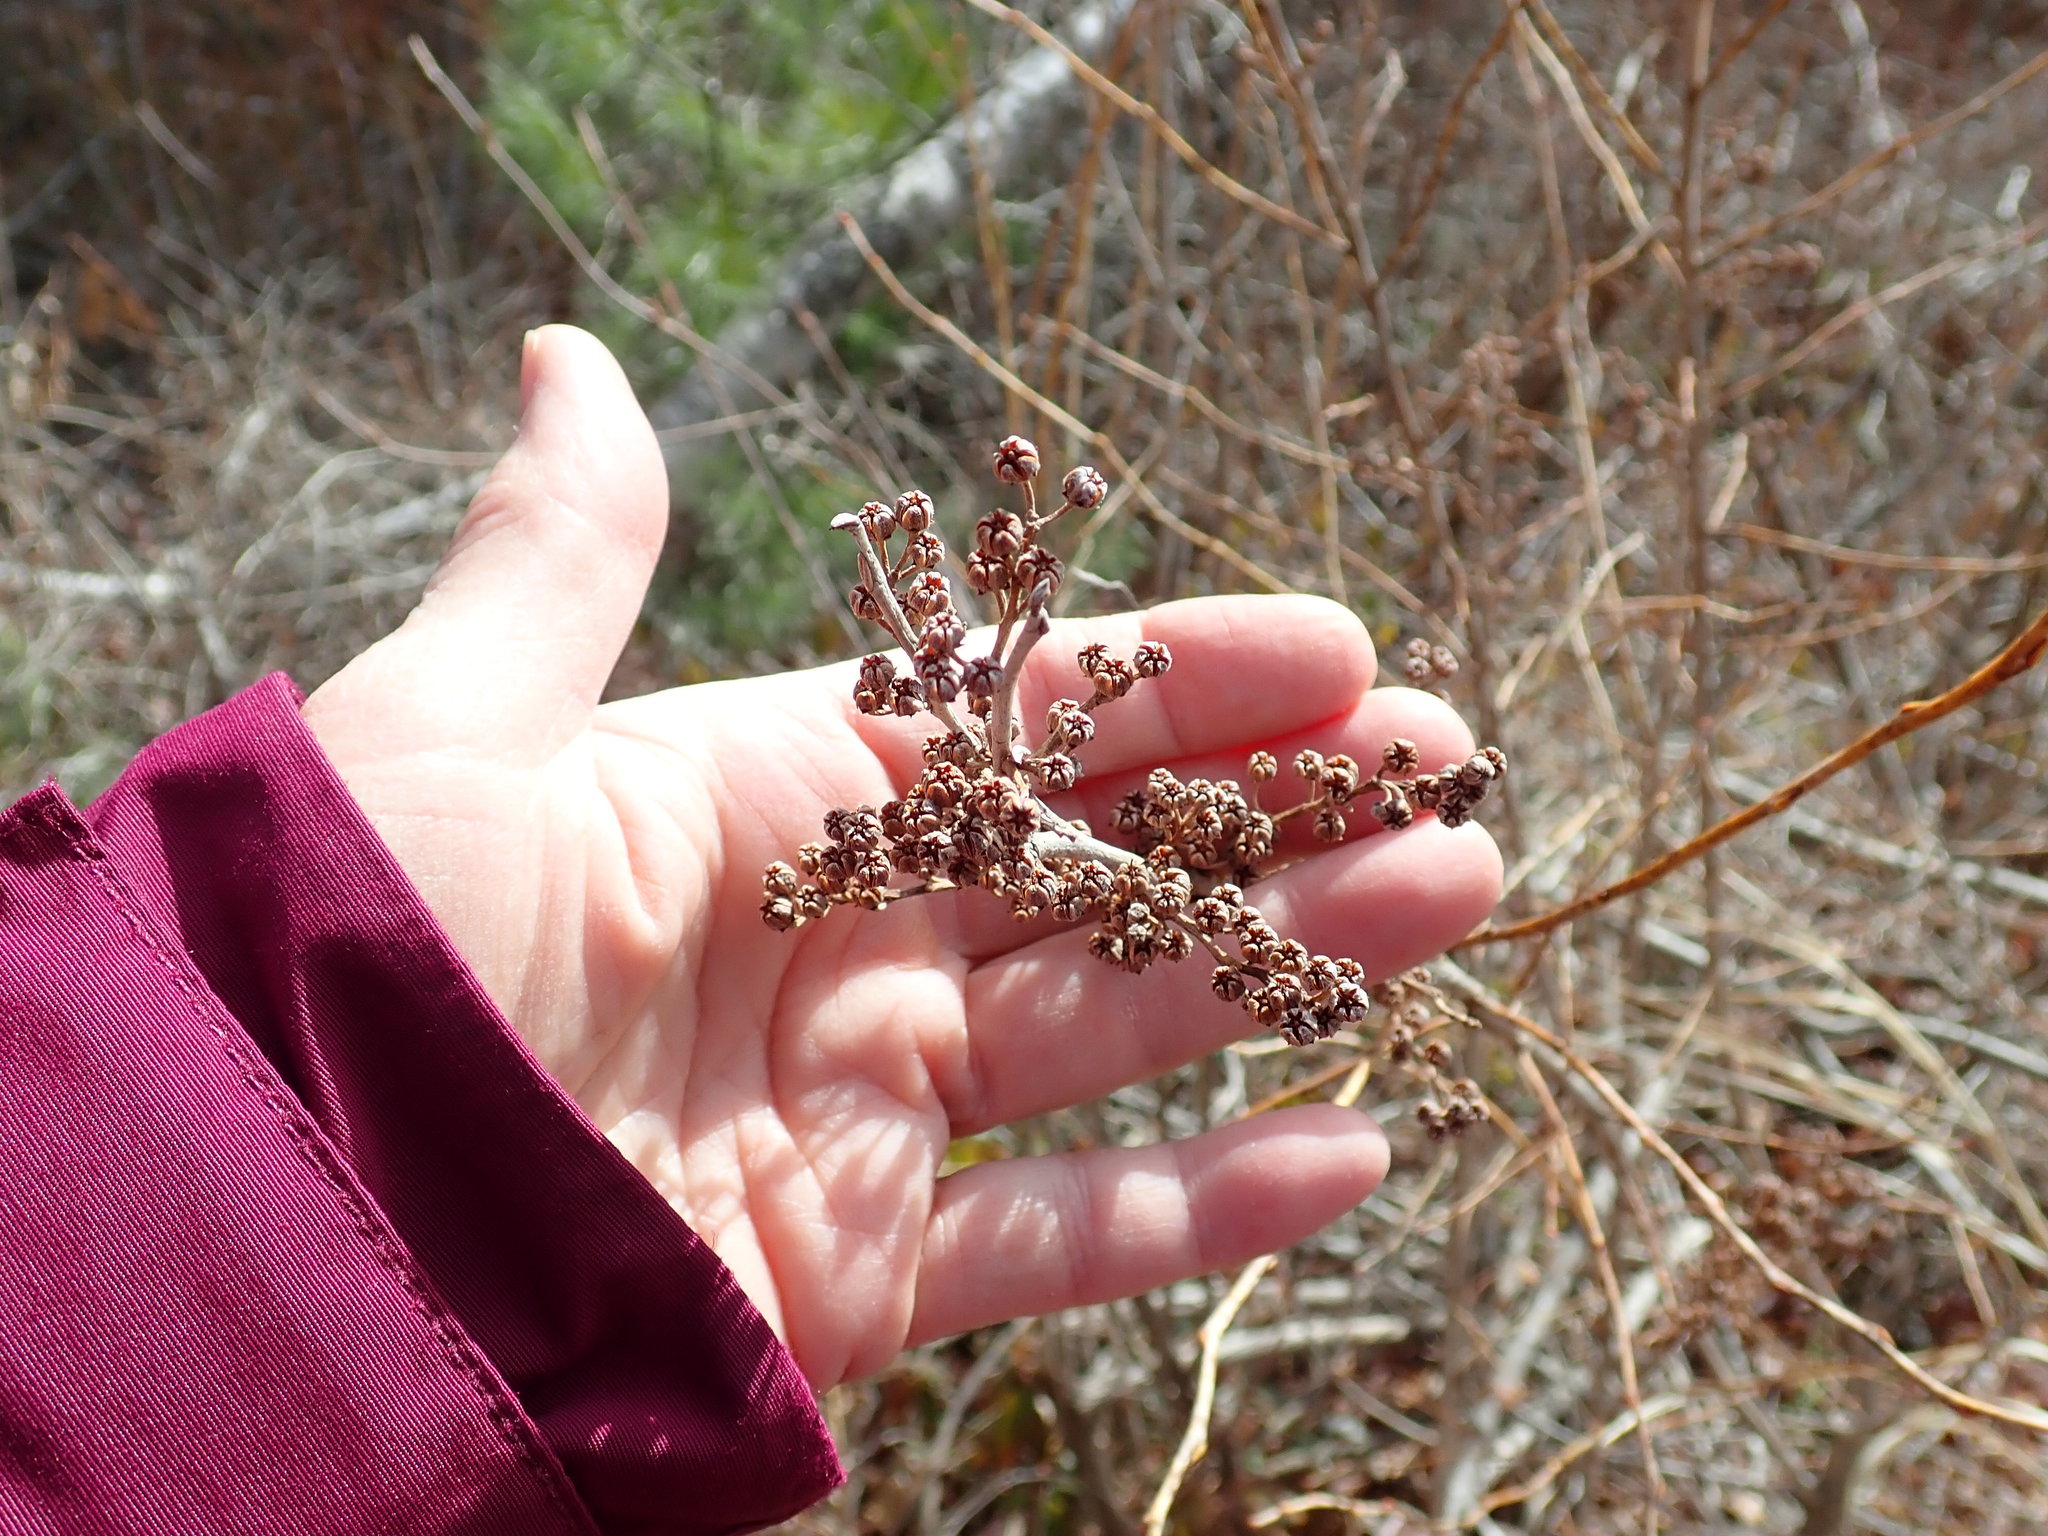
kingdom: Plantae
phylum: Tracheophyta
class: Magnoliopsida
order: Ericales
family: Ericaceae
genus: Lyonia
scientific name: Lyonia ligustrina
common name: Maleberry
